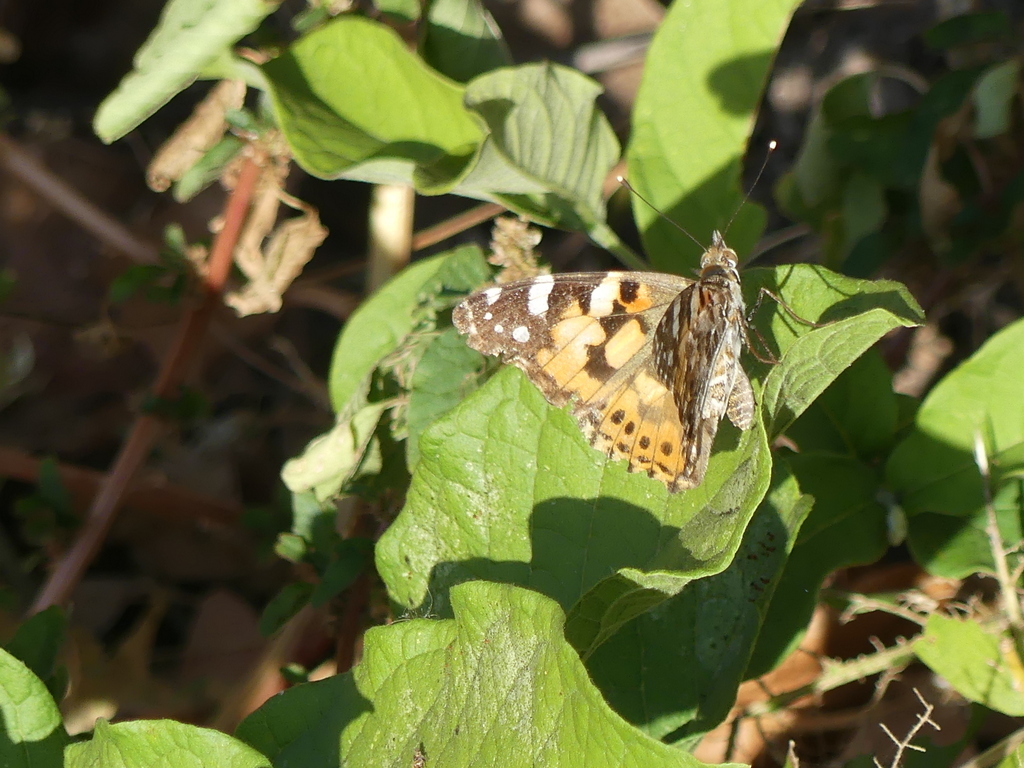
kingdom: Animalia
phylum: Arthropoda
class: Insecta
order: Lepidoptera
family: Nymphalidae
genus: Vanessa
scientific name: Vanessa cardui
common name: Painted lady
